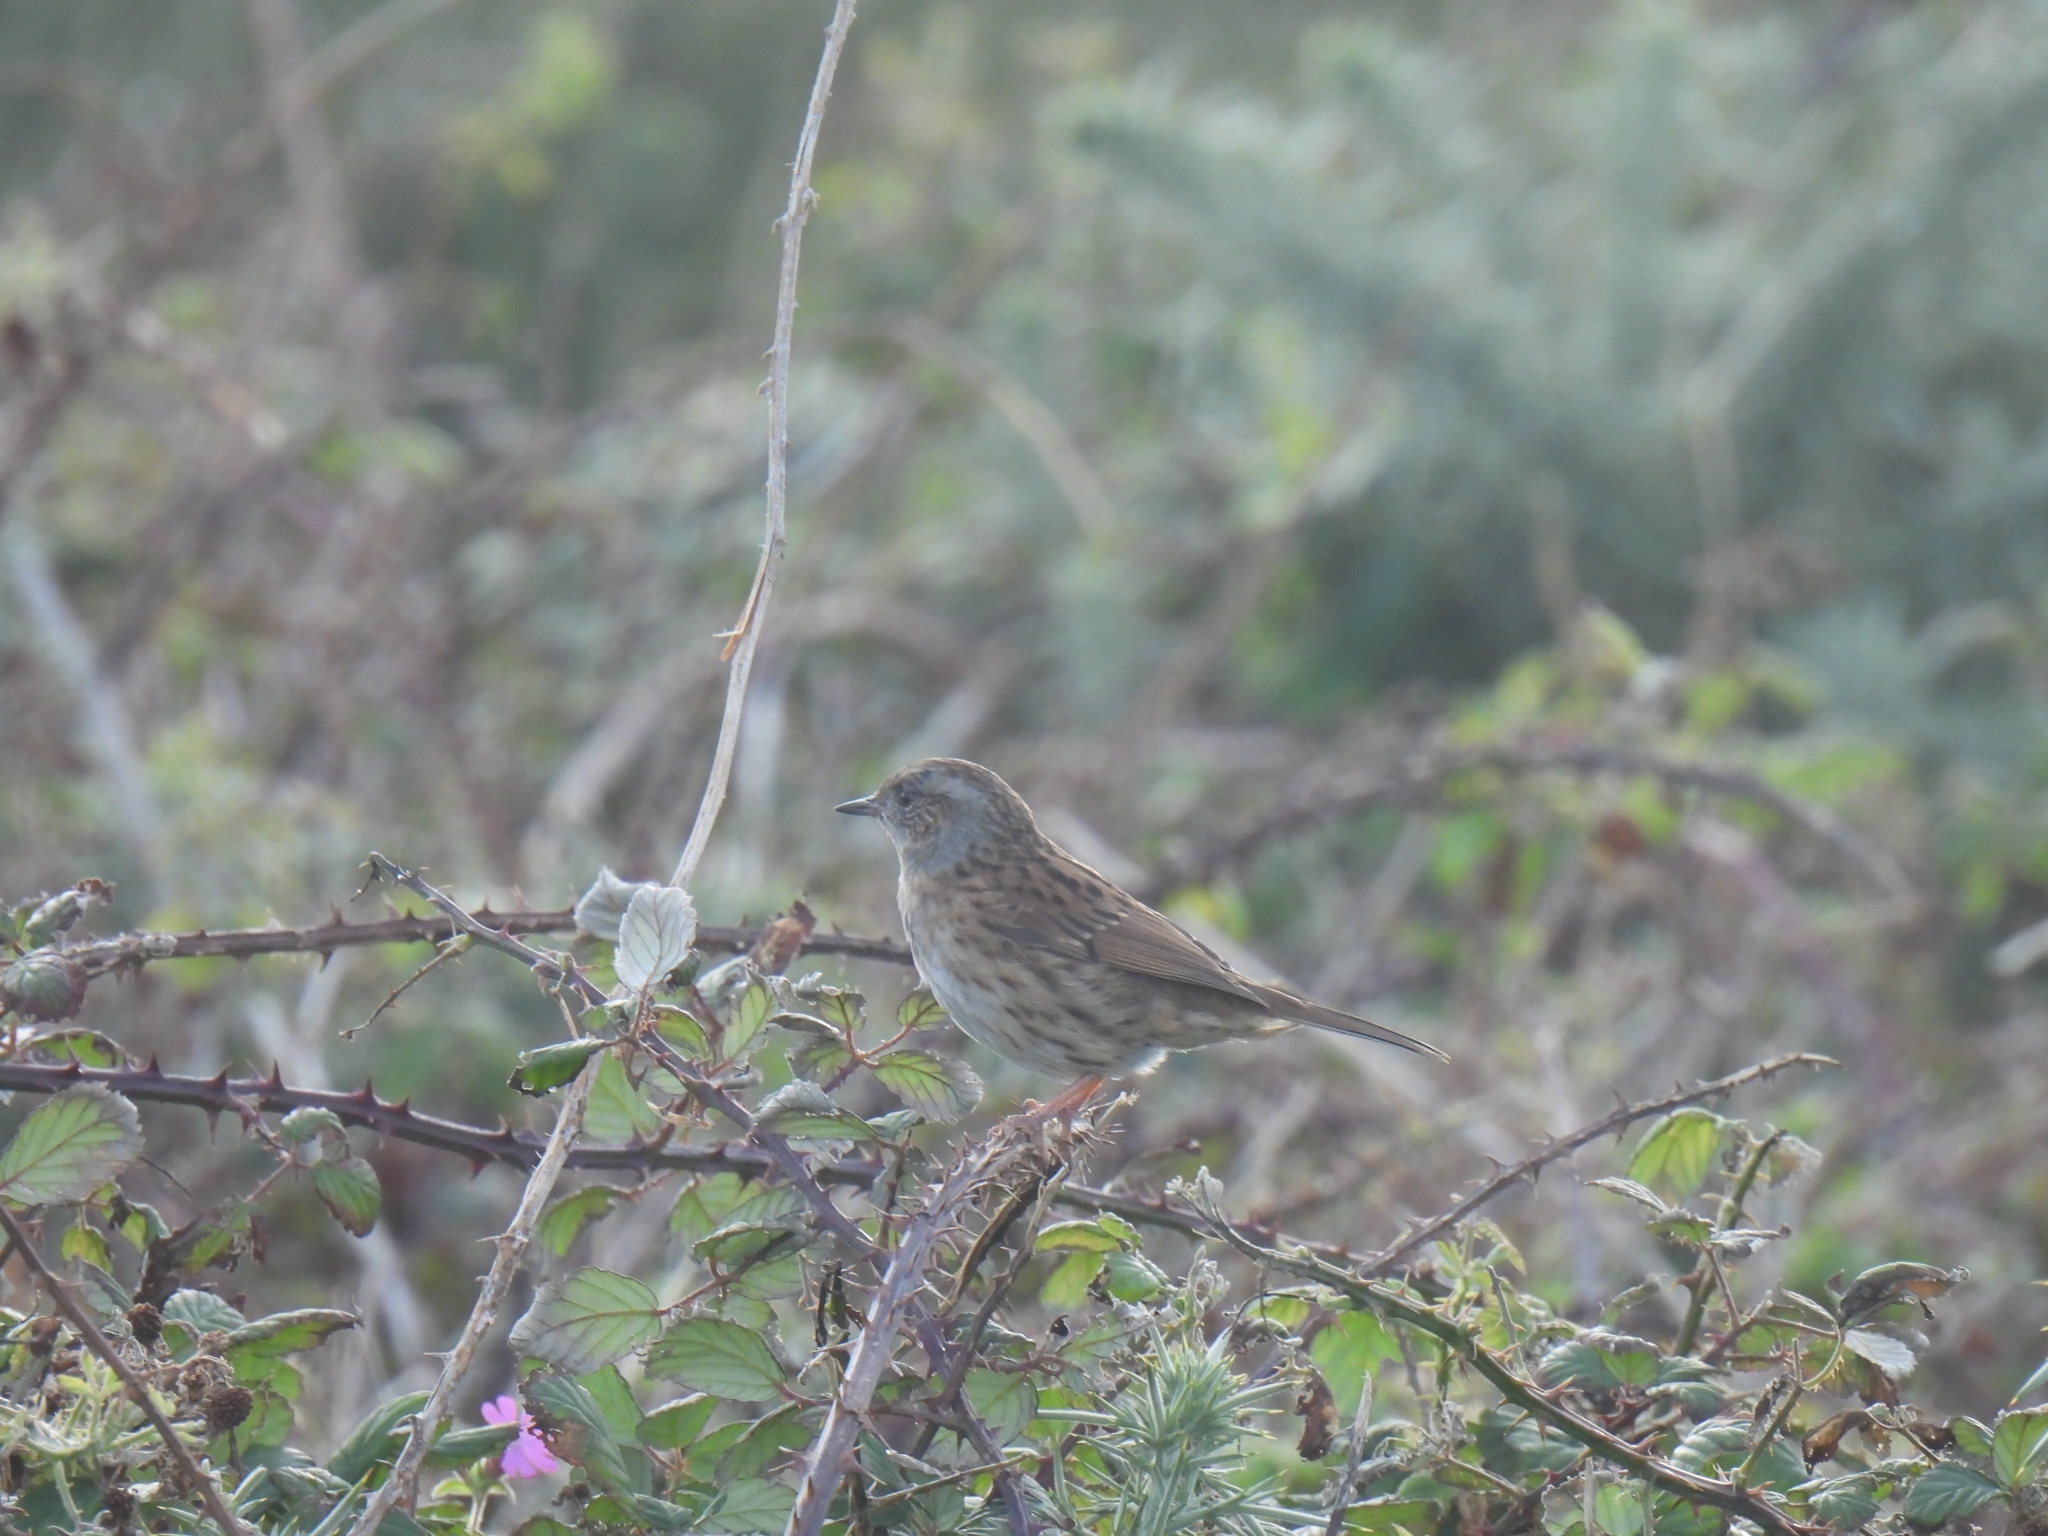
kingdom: Animalia
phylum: Chordata
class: Aves
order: Passeriformes
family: Prunellidae
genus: Prunella
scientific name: Prunella modularis
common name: Dunnock
